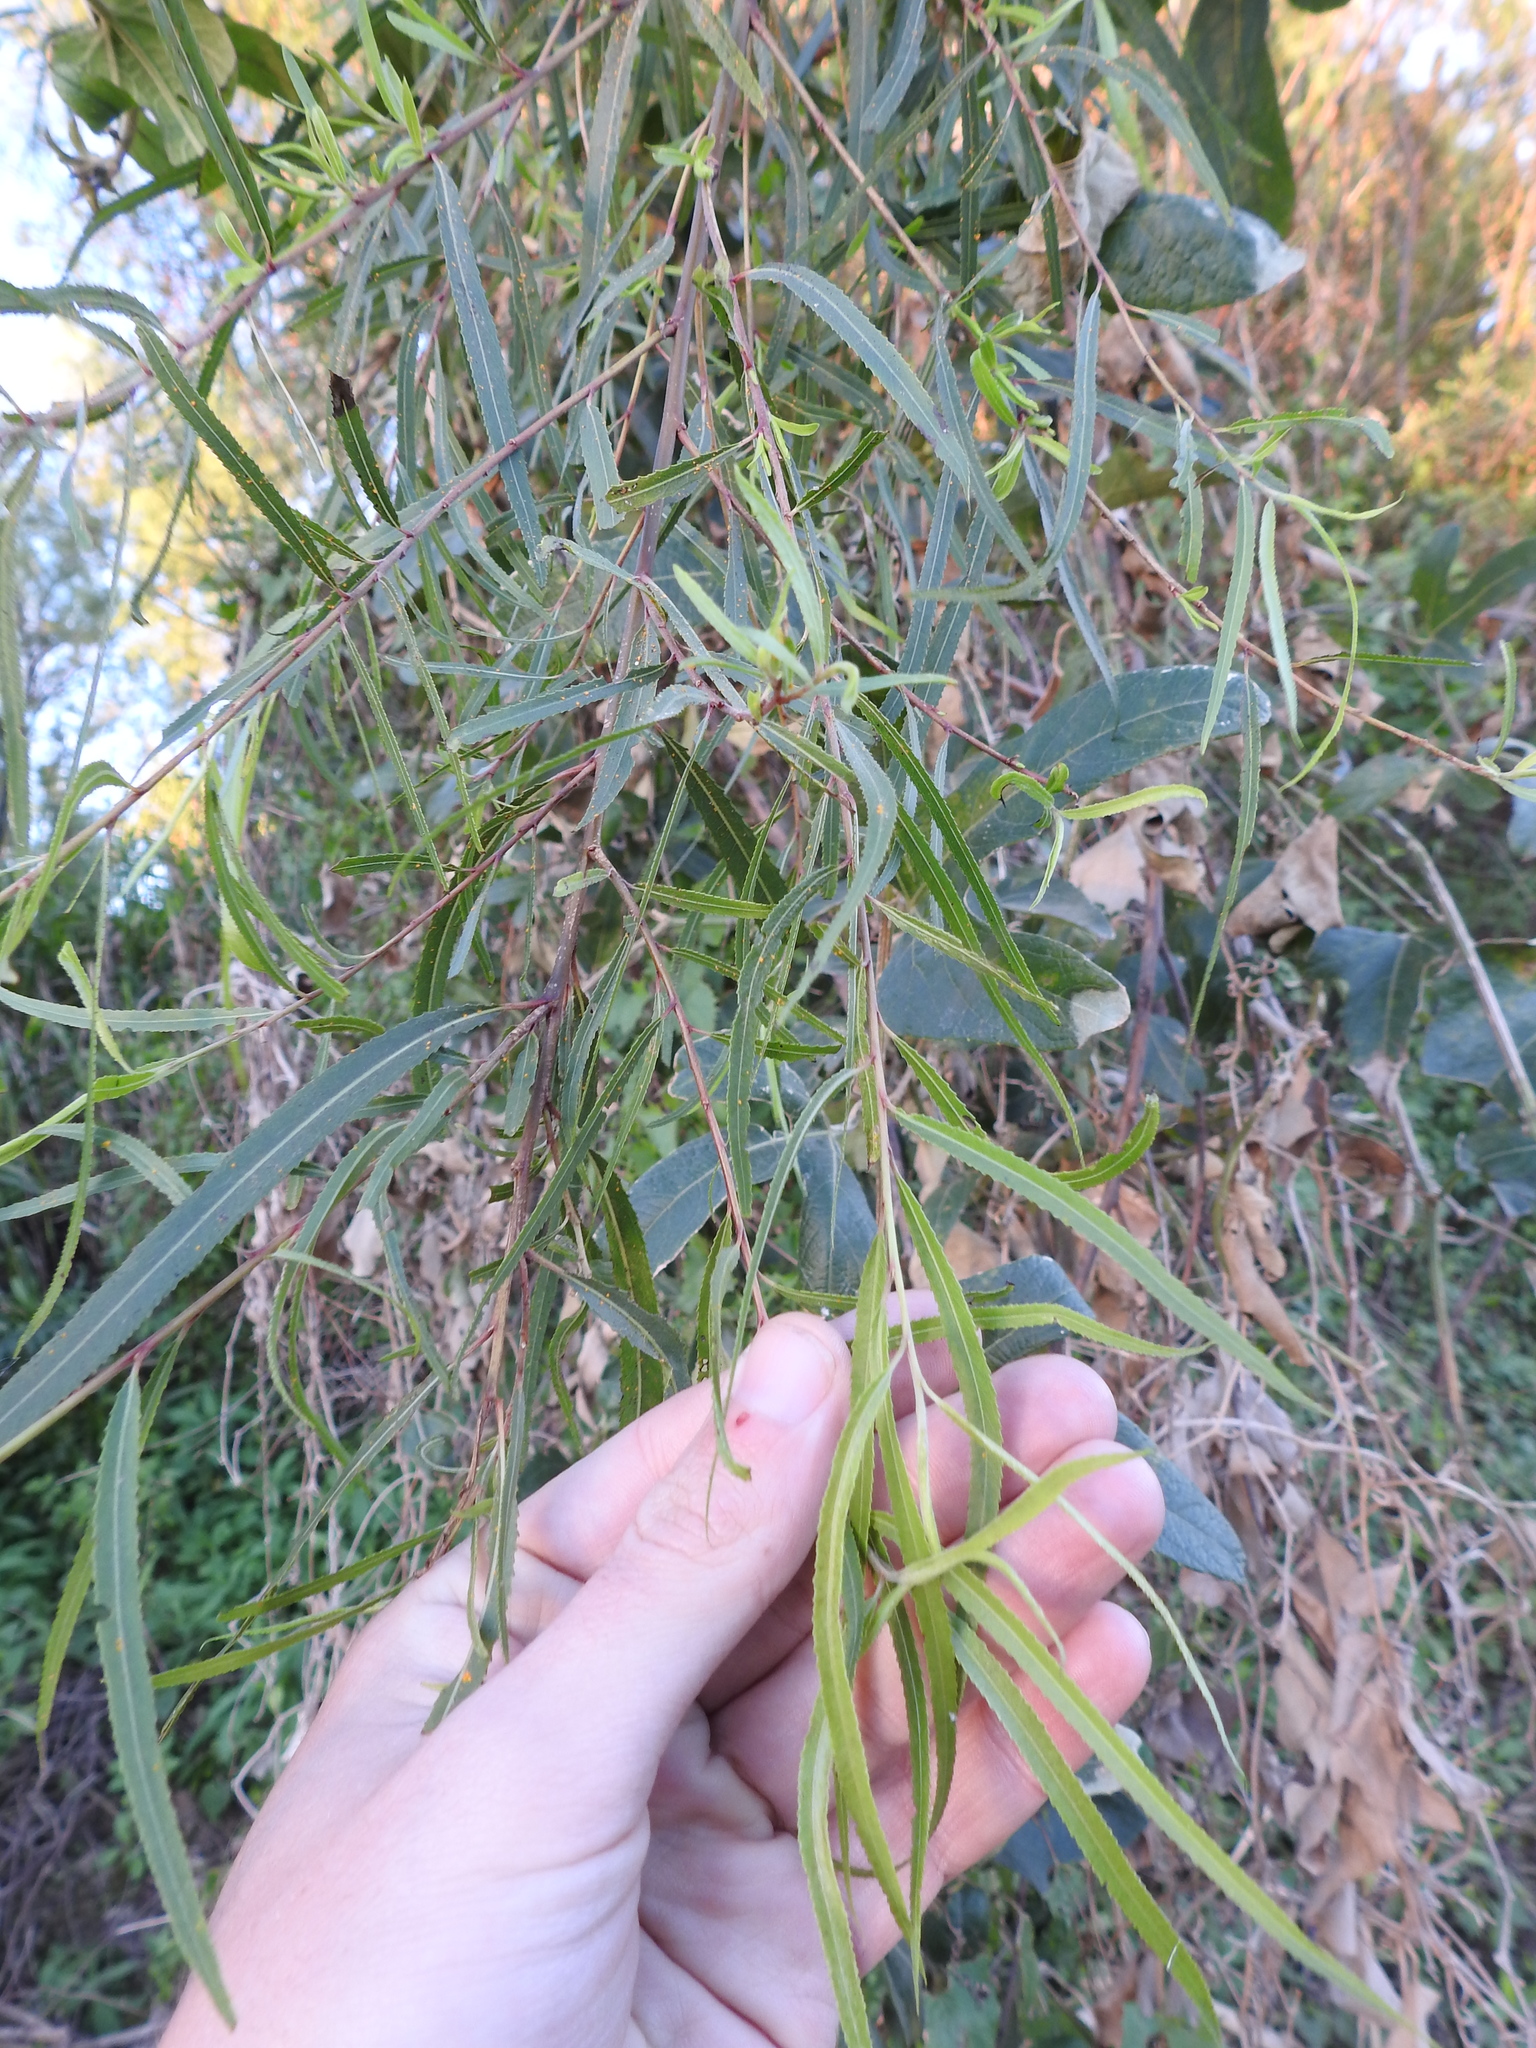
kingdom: Plantae
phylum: Tracheophyta
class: Magnoliopsida
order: Malpighiales
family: Salicaceae
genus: Salix
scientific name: Salix humboldtiana
